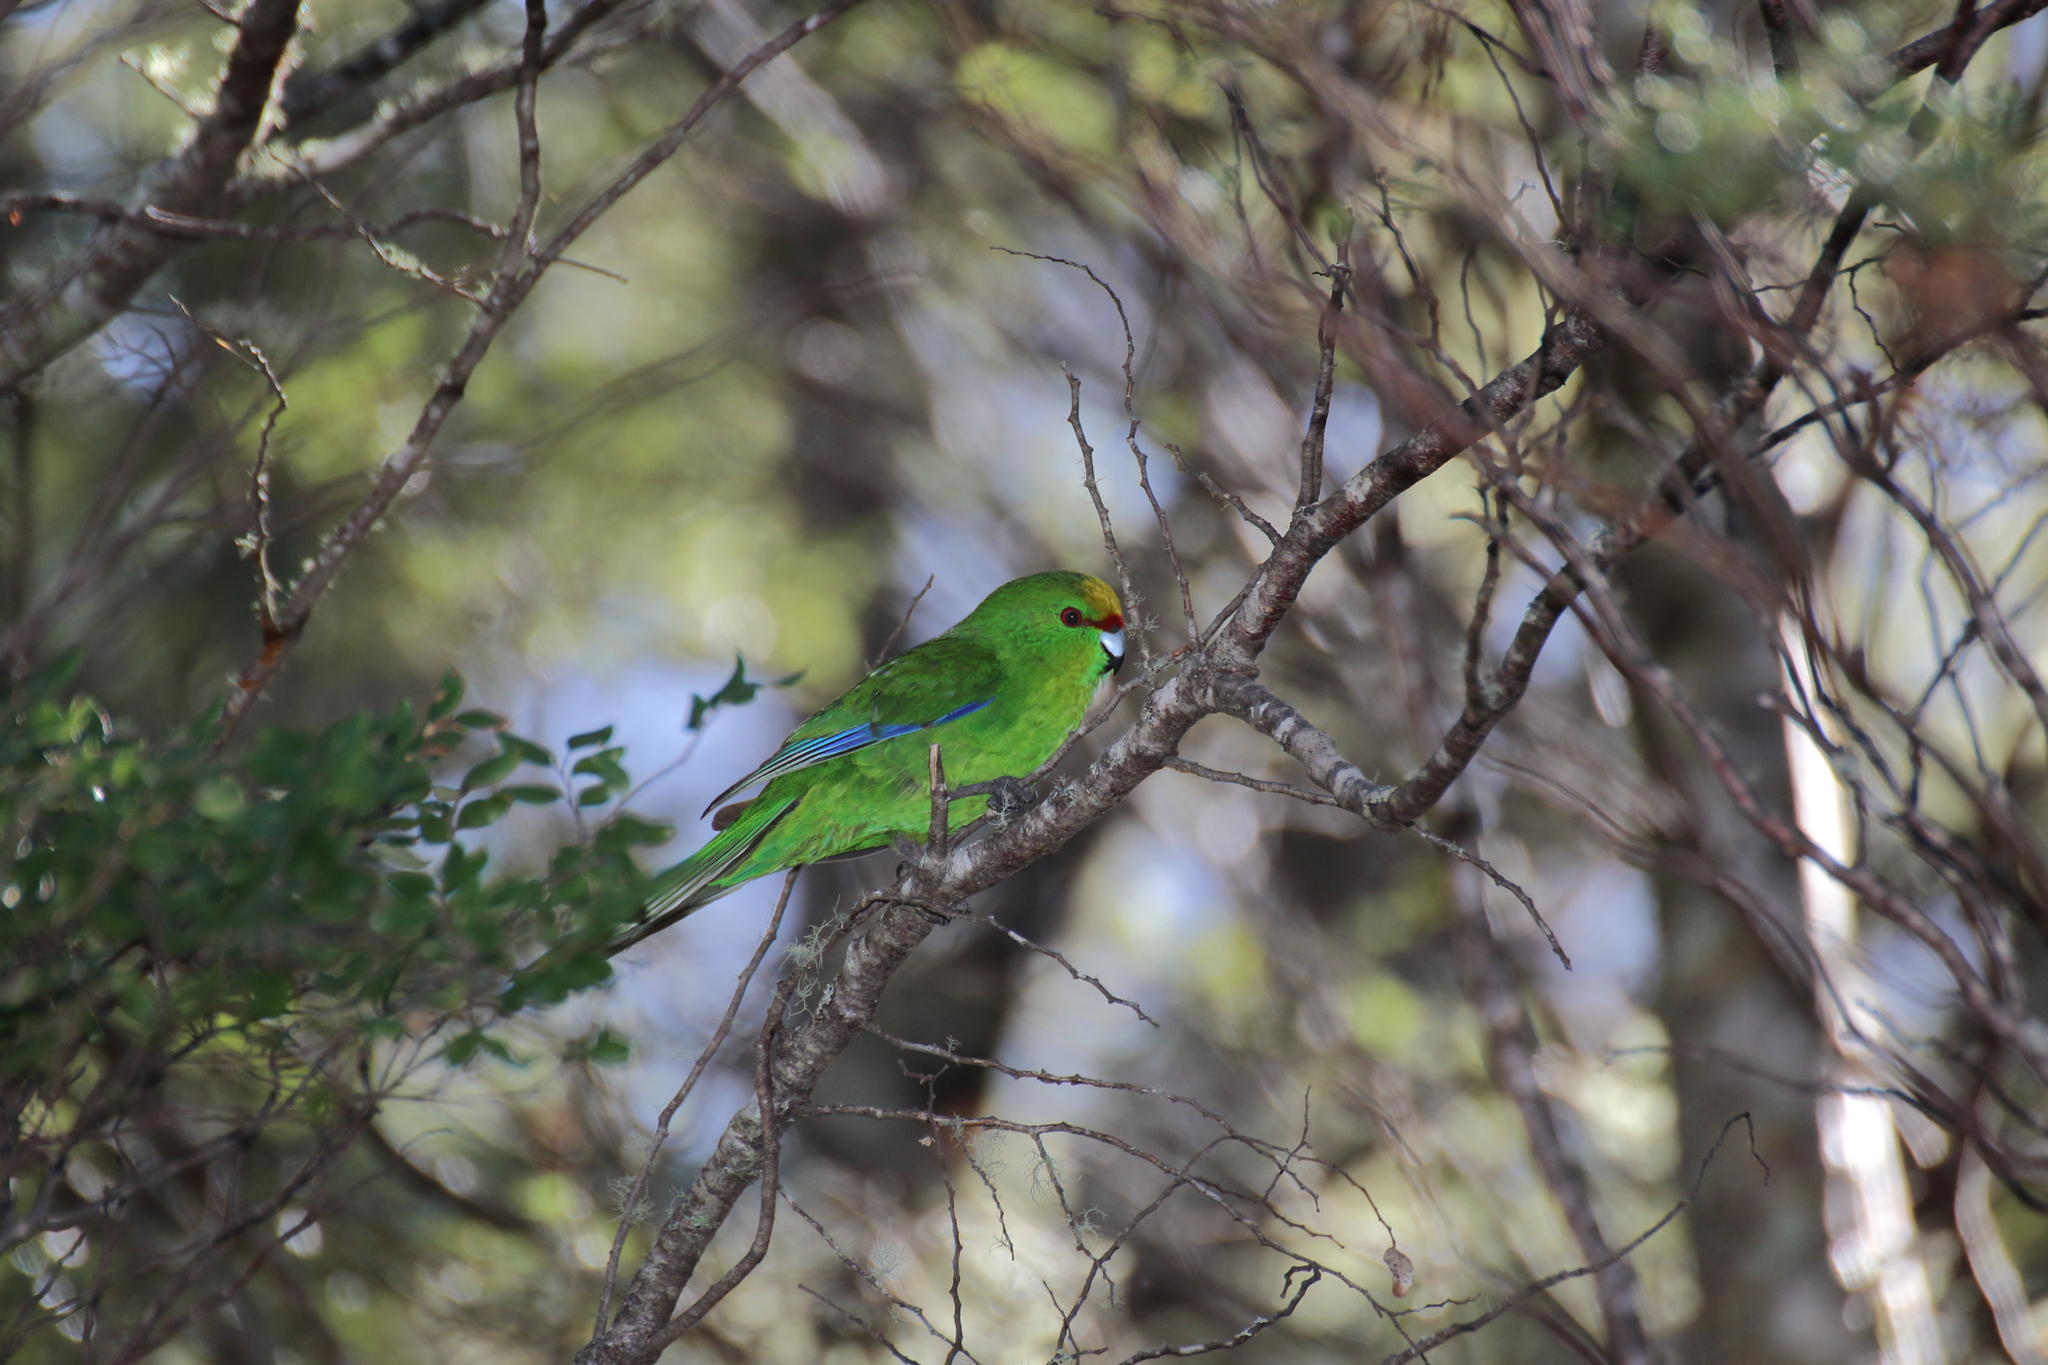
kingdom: Animalia
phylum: Chordata
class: Aves
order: Psittaciformes
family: Psittacidae
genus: Cyanoramphus
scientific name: Cyanoramphus auriceps
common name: Yellow-crowned parakeet
